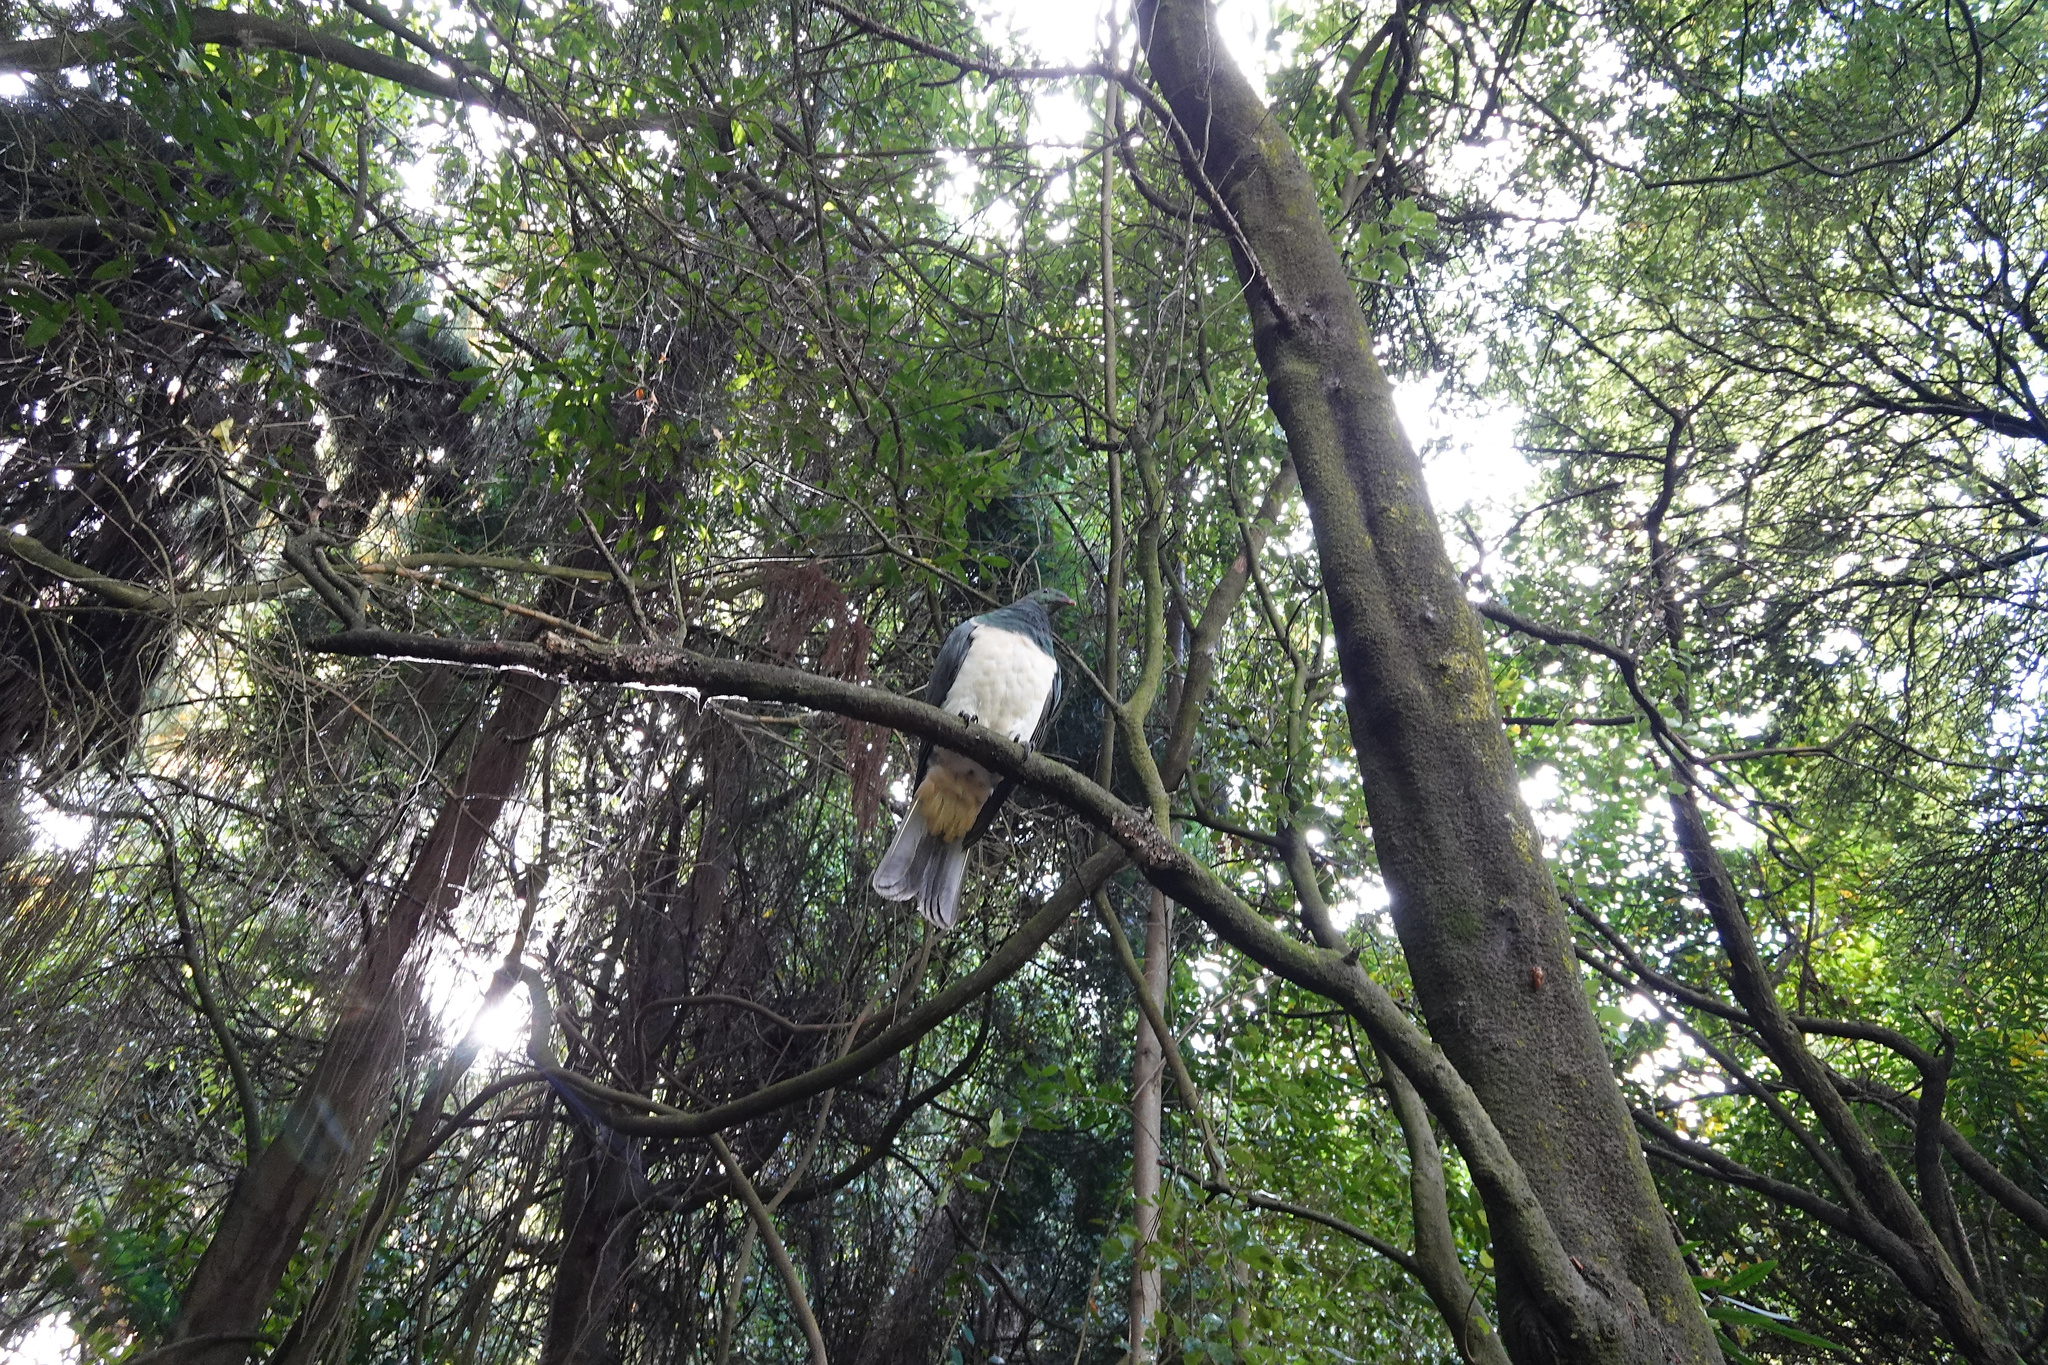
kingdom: Animalia
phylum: Chordata
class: Aves
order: Columbiformes
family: Columbidae
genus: Hemiphaga
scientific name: Hemiphaga novaeseelandiae
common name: New zealand pigeon
